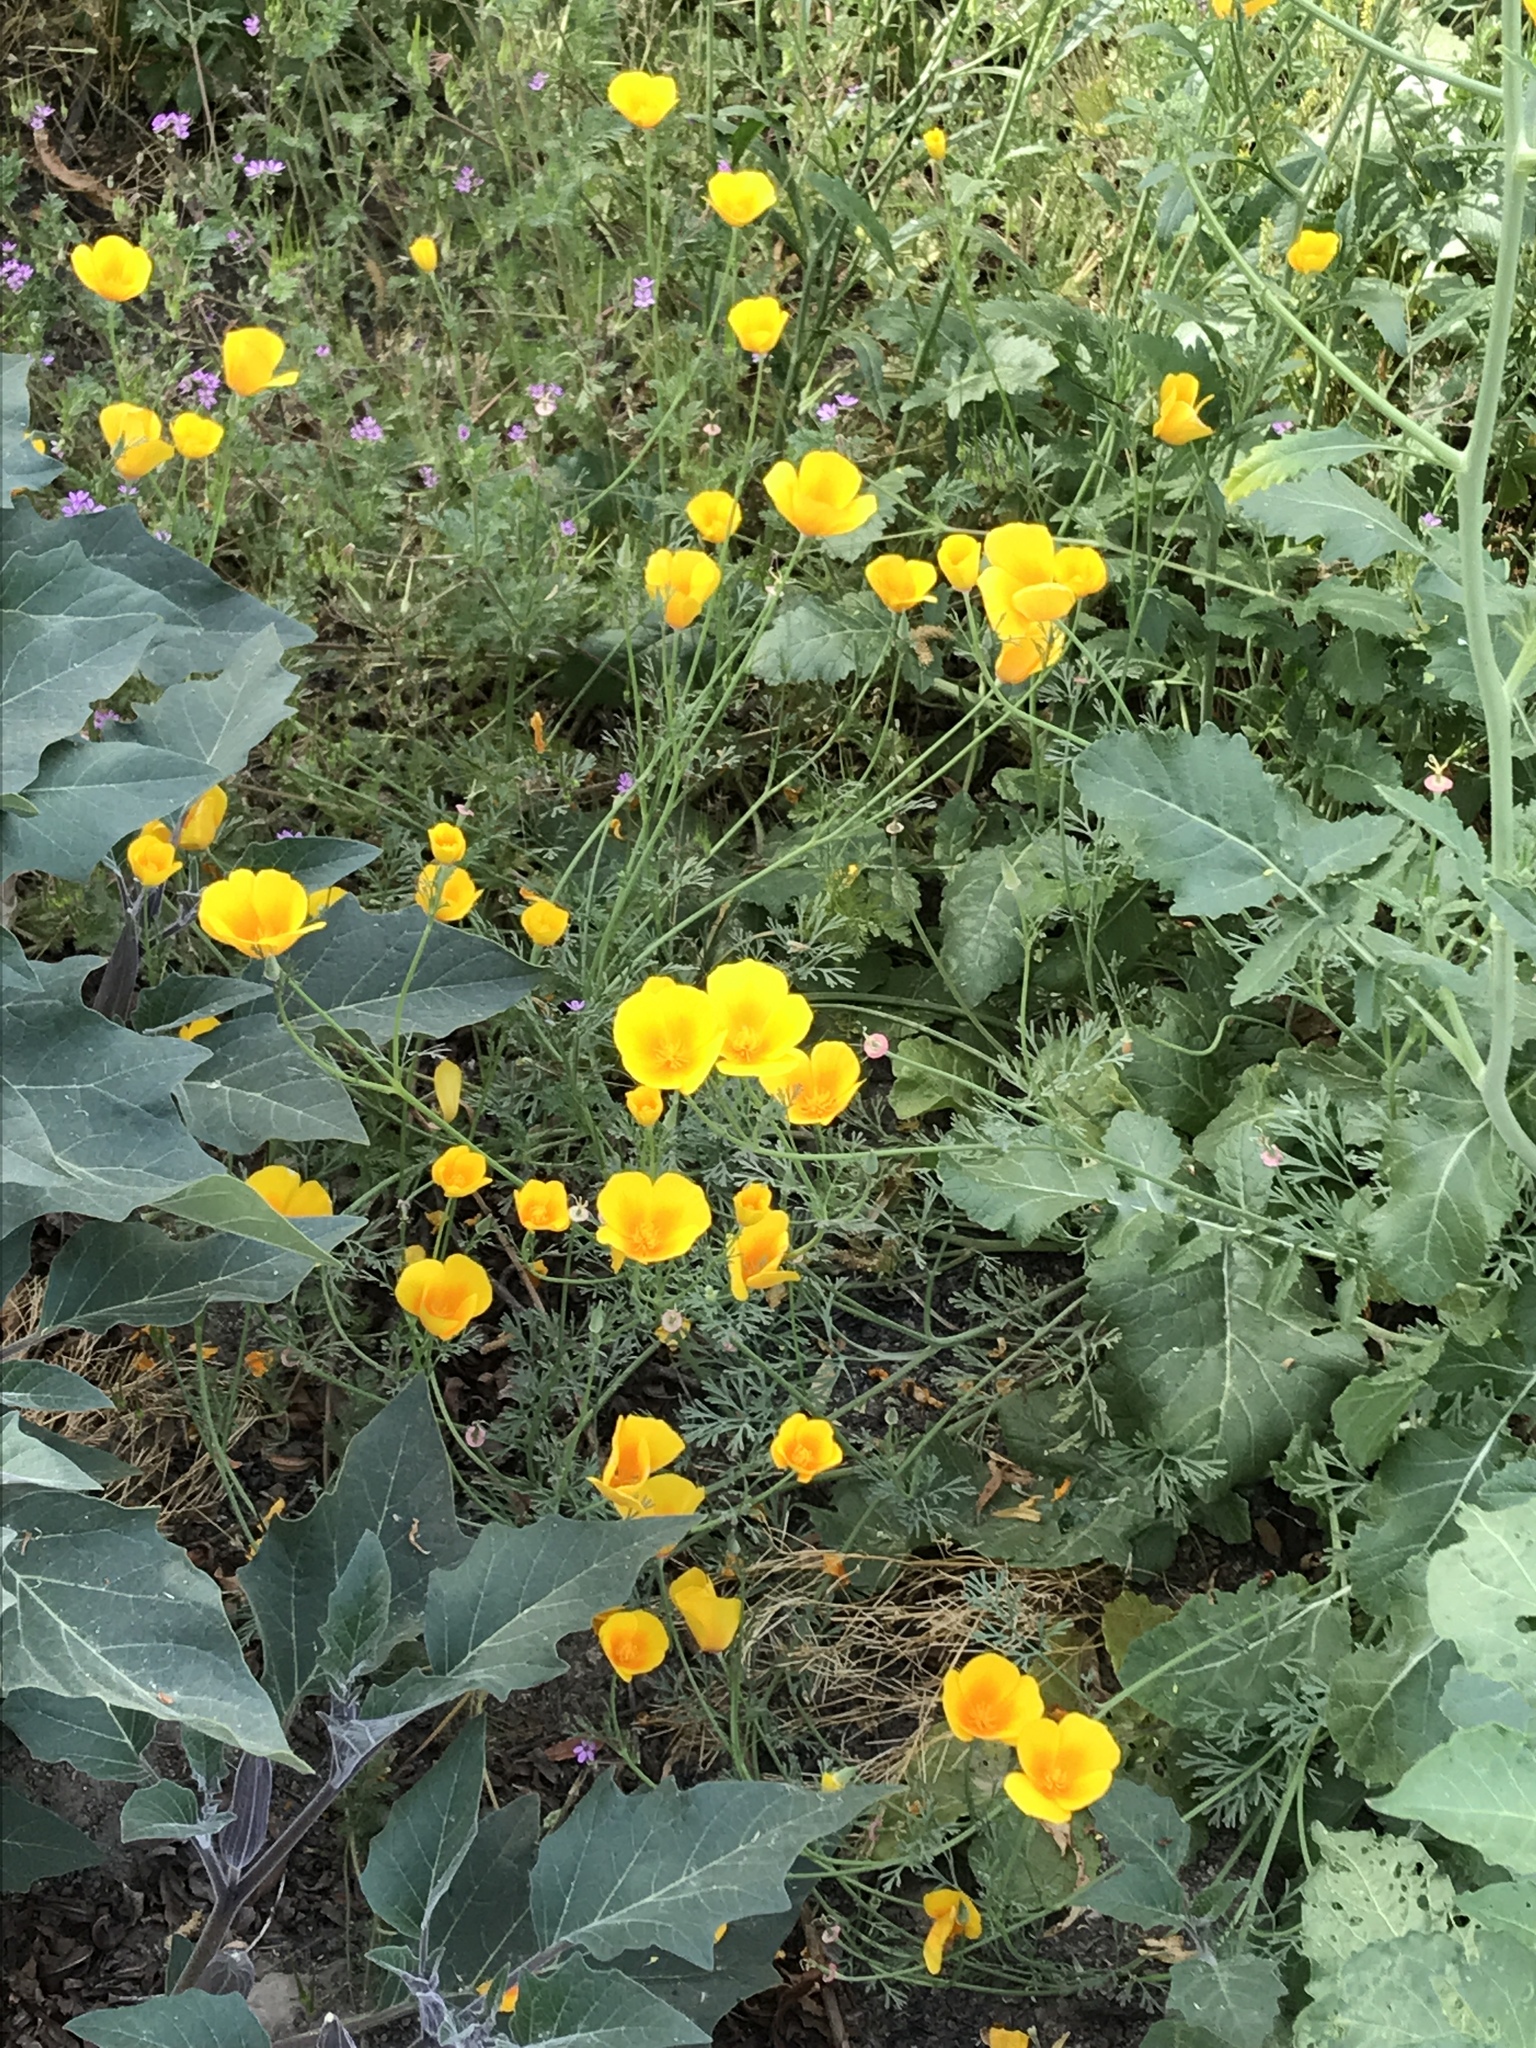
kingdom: Plantae
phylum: Tracheophyta
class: Magnoliopsida
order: Ranunculales
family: Papaveraceae
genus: Eschscholzia
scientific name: Eschscholzia californica
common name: California poppy
